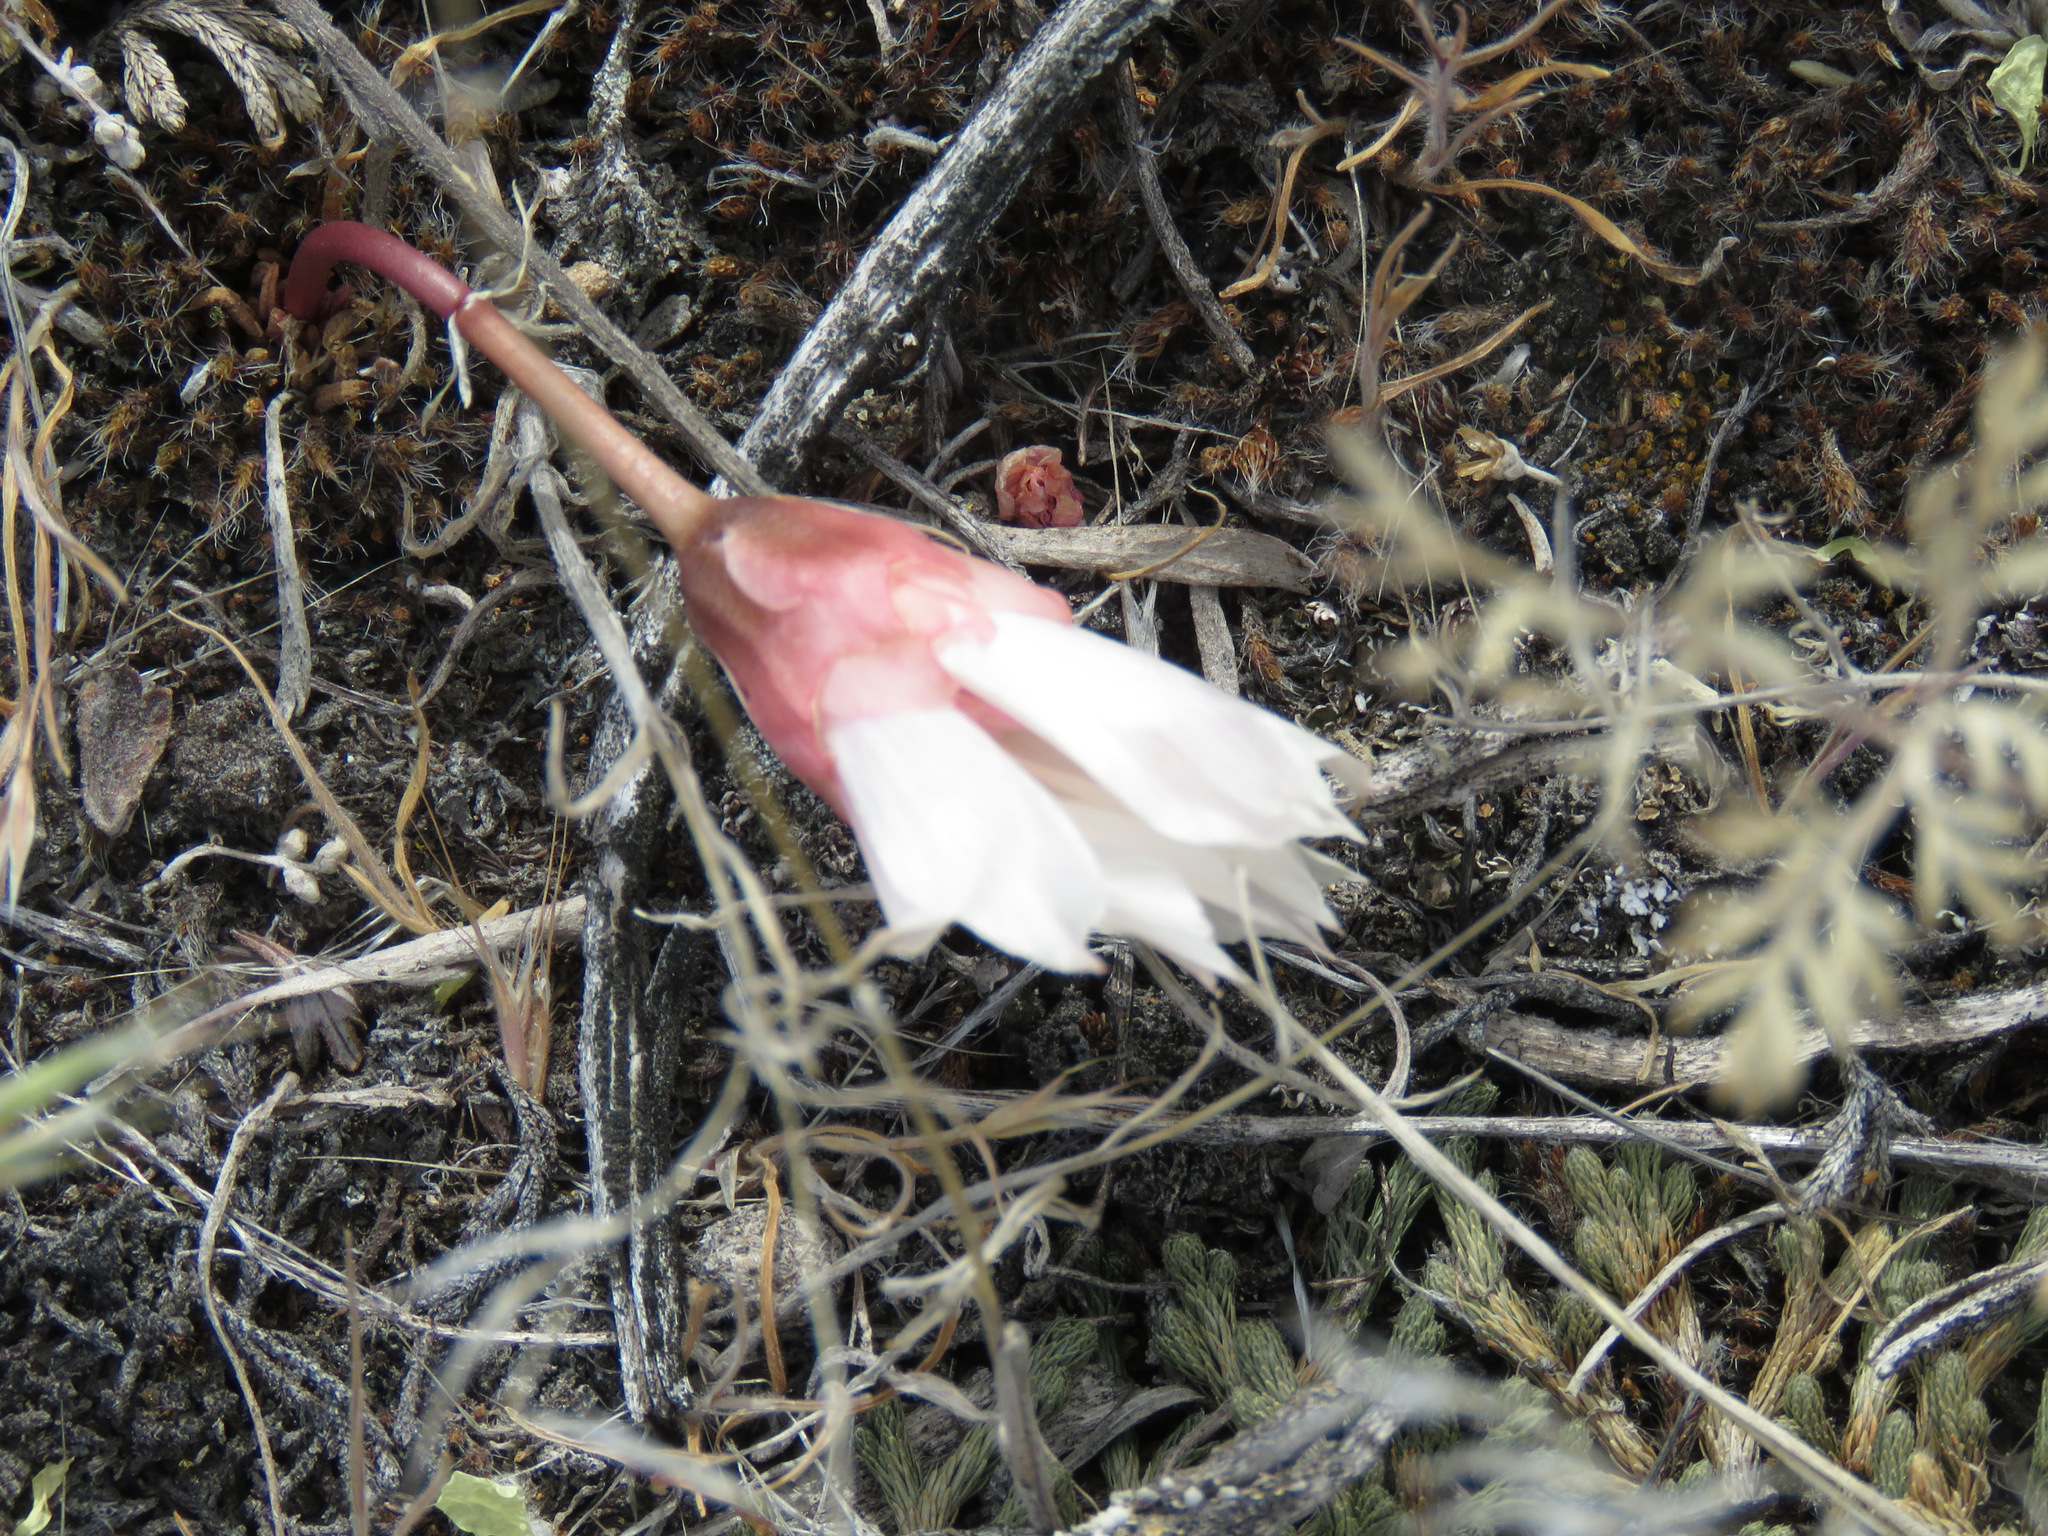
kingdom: Plantae
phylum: Tracheophyta
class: Magnoliopsida
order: Caryophyllales
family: Montiaceae
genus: Lewisia
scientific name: Lewisia rediviva
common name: Bitter-root
